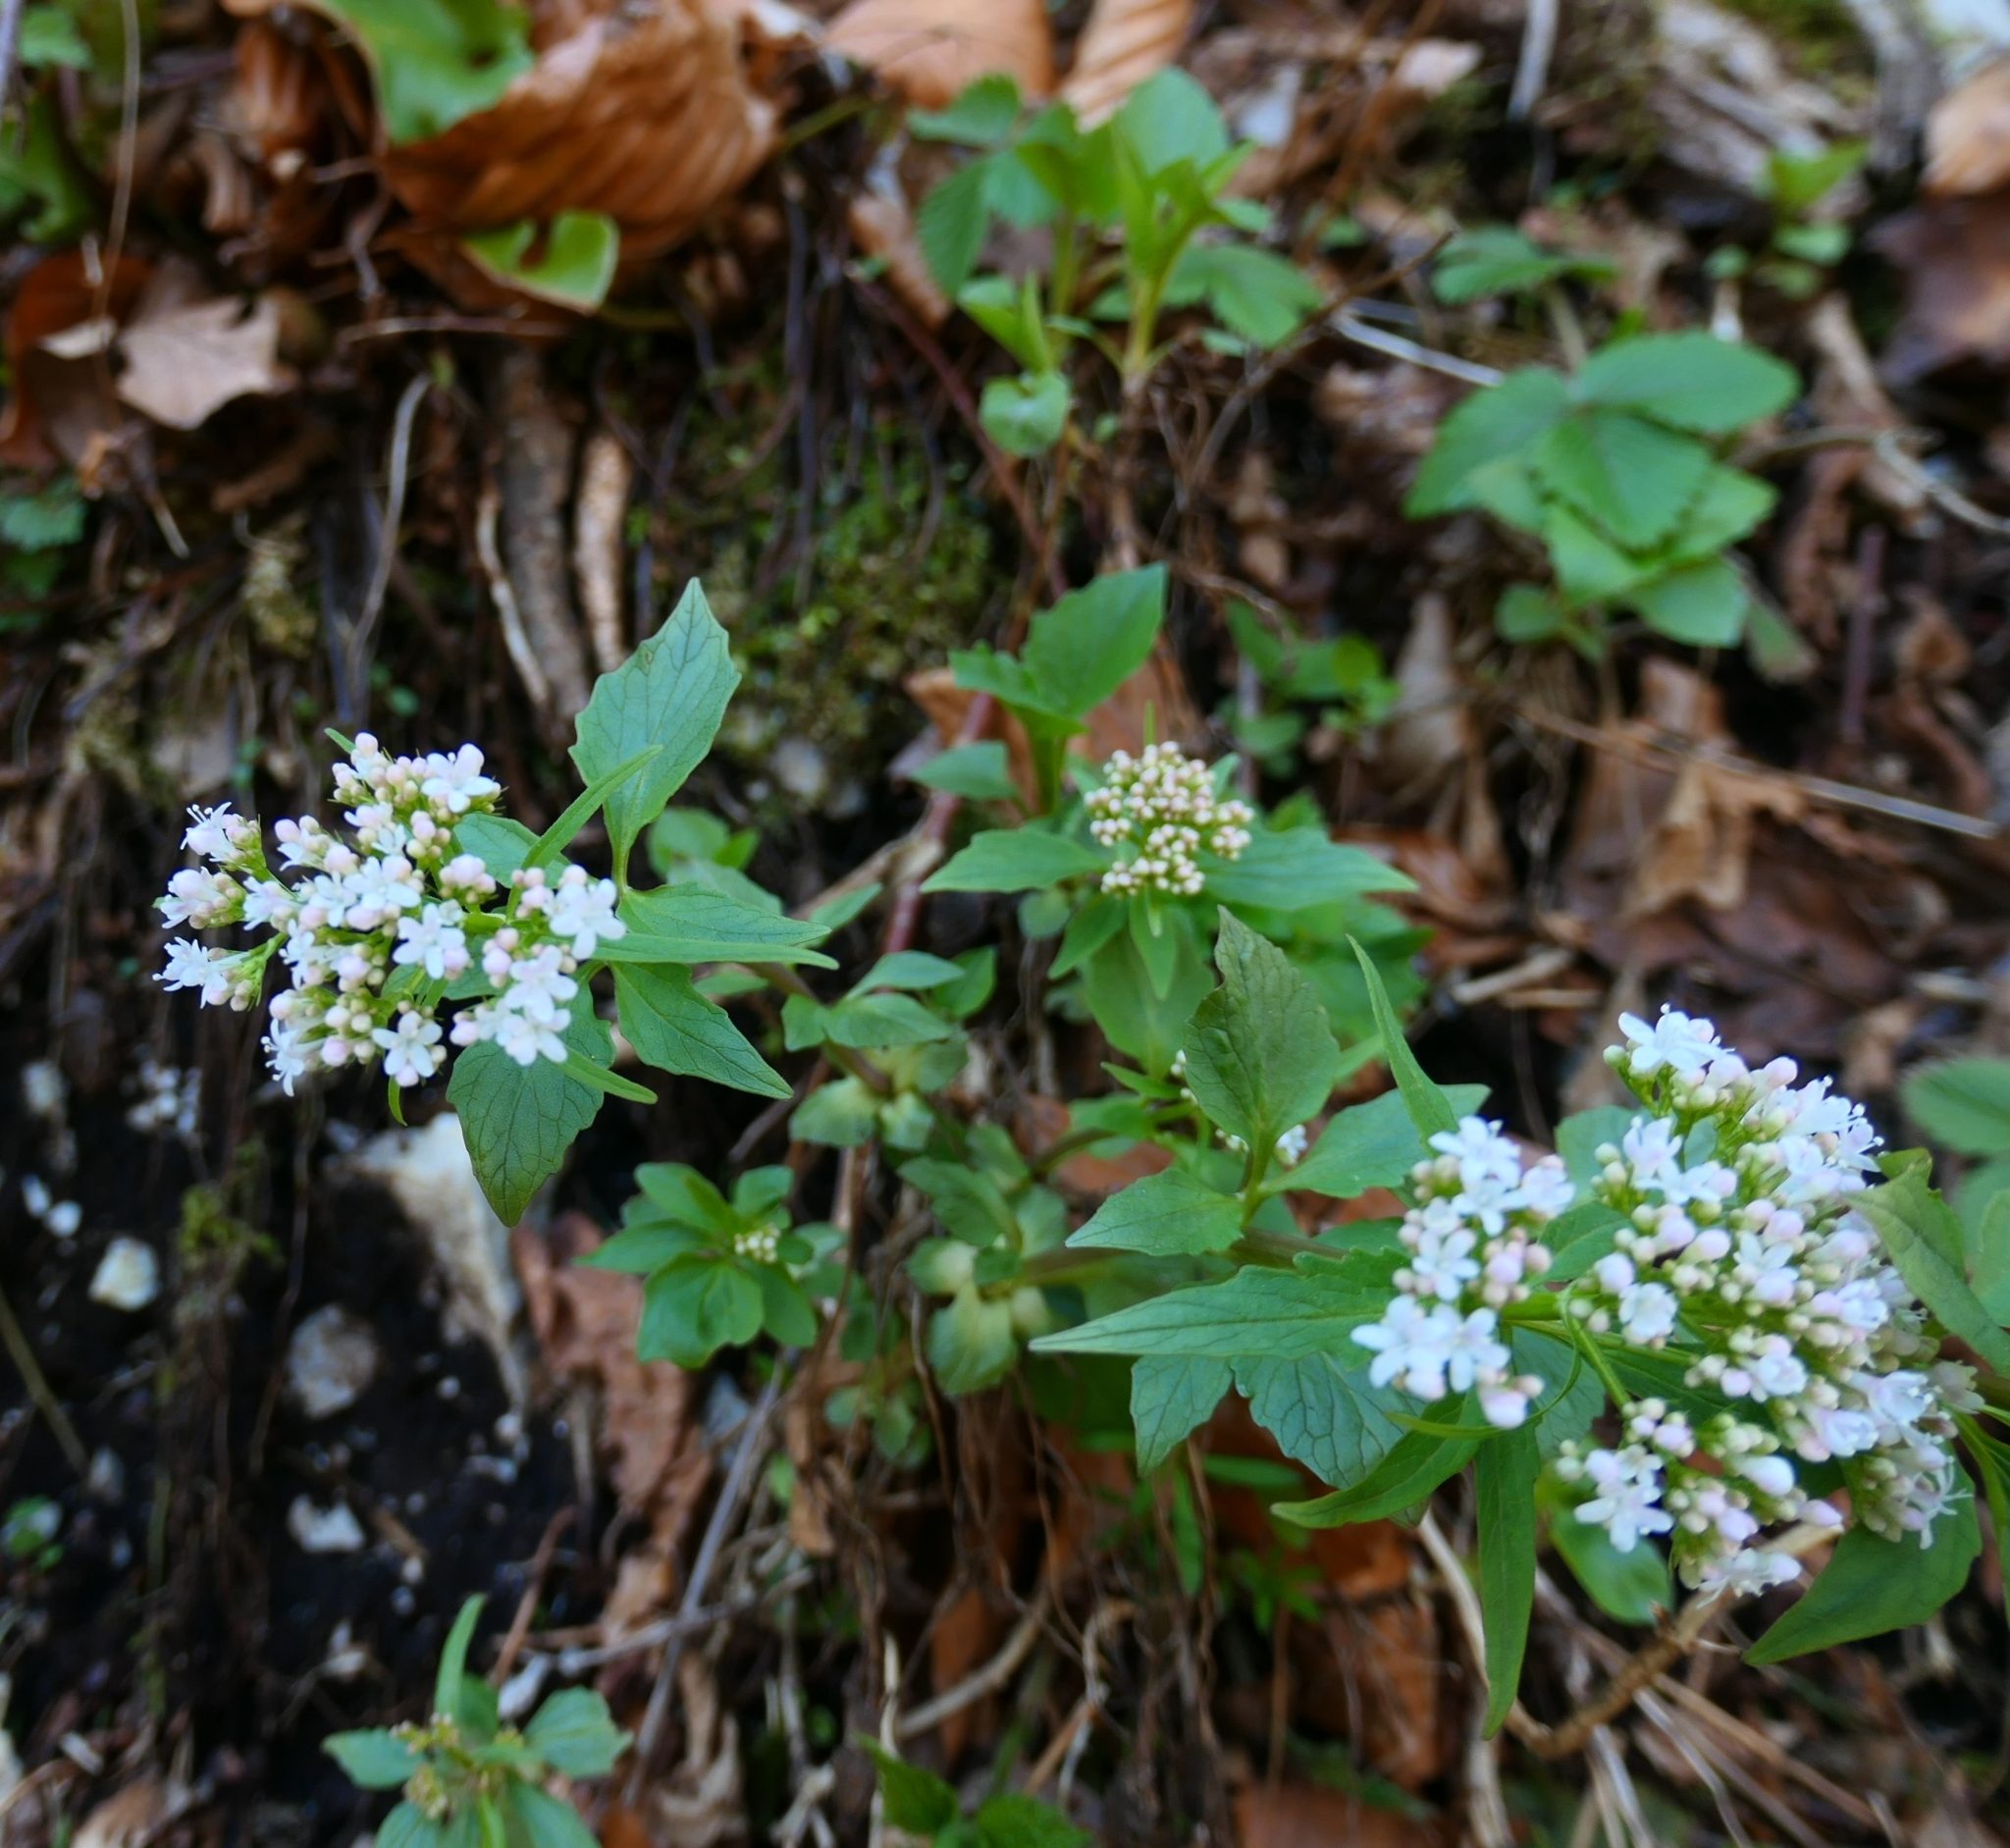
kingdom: Plantae
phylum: Tracheophyta
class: Magnoliopsida
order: Dipsacales
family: Caprifoliaceae
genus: Valeriana
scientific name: Valeriana tripteris
